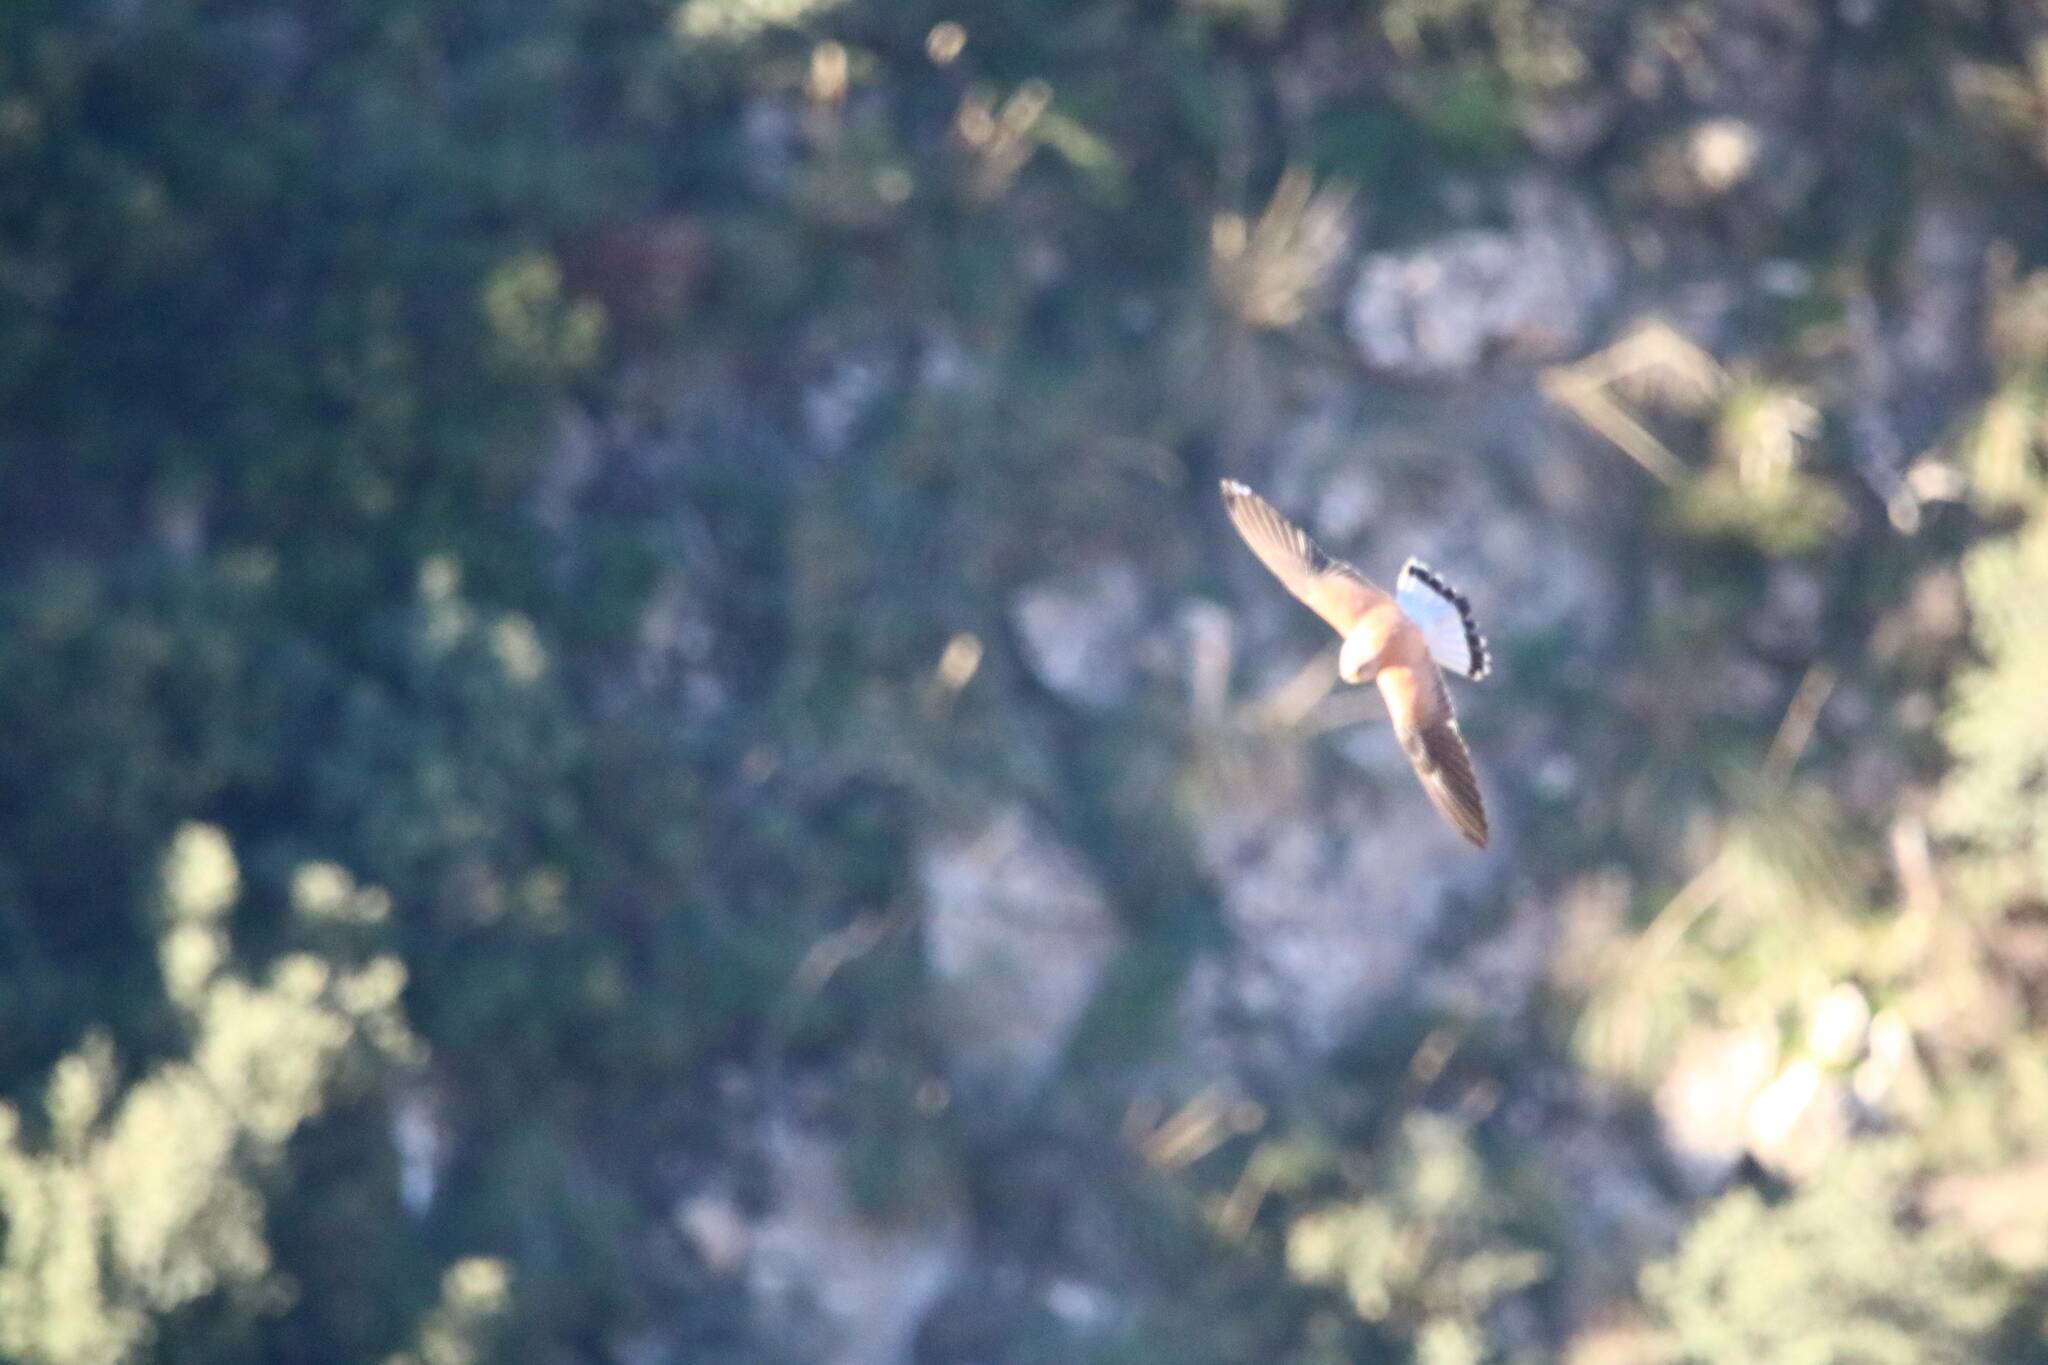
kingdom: Animalia
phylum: Chordata
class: Aves
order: Falconiformes
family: Falconidae
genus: Falco
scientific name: Falco naumanni
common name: Lesser kestrel
